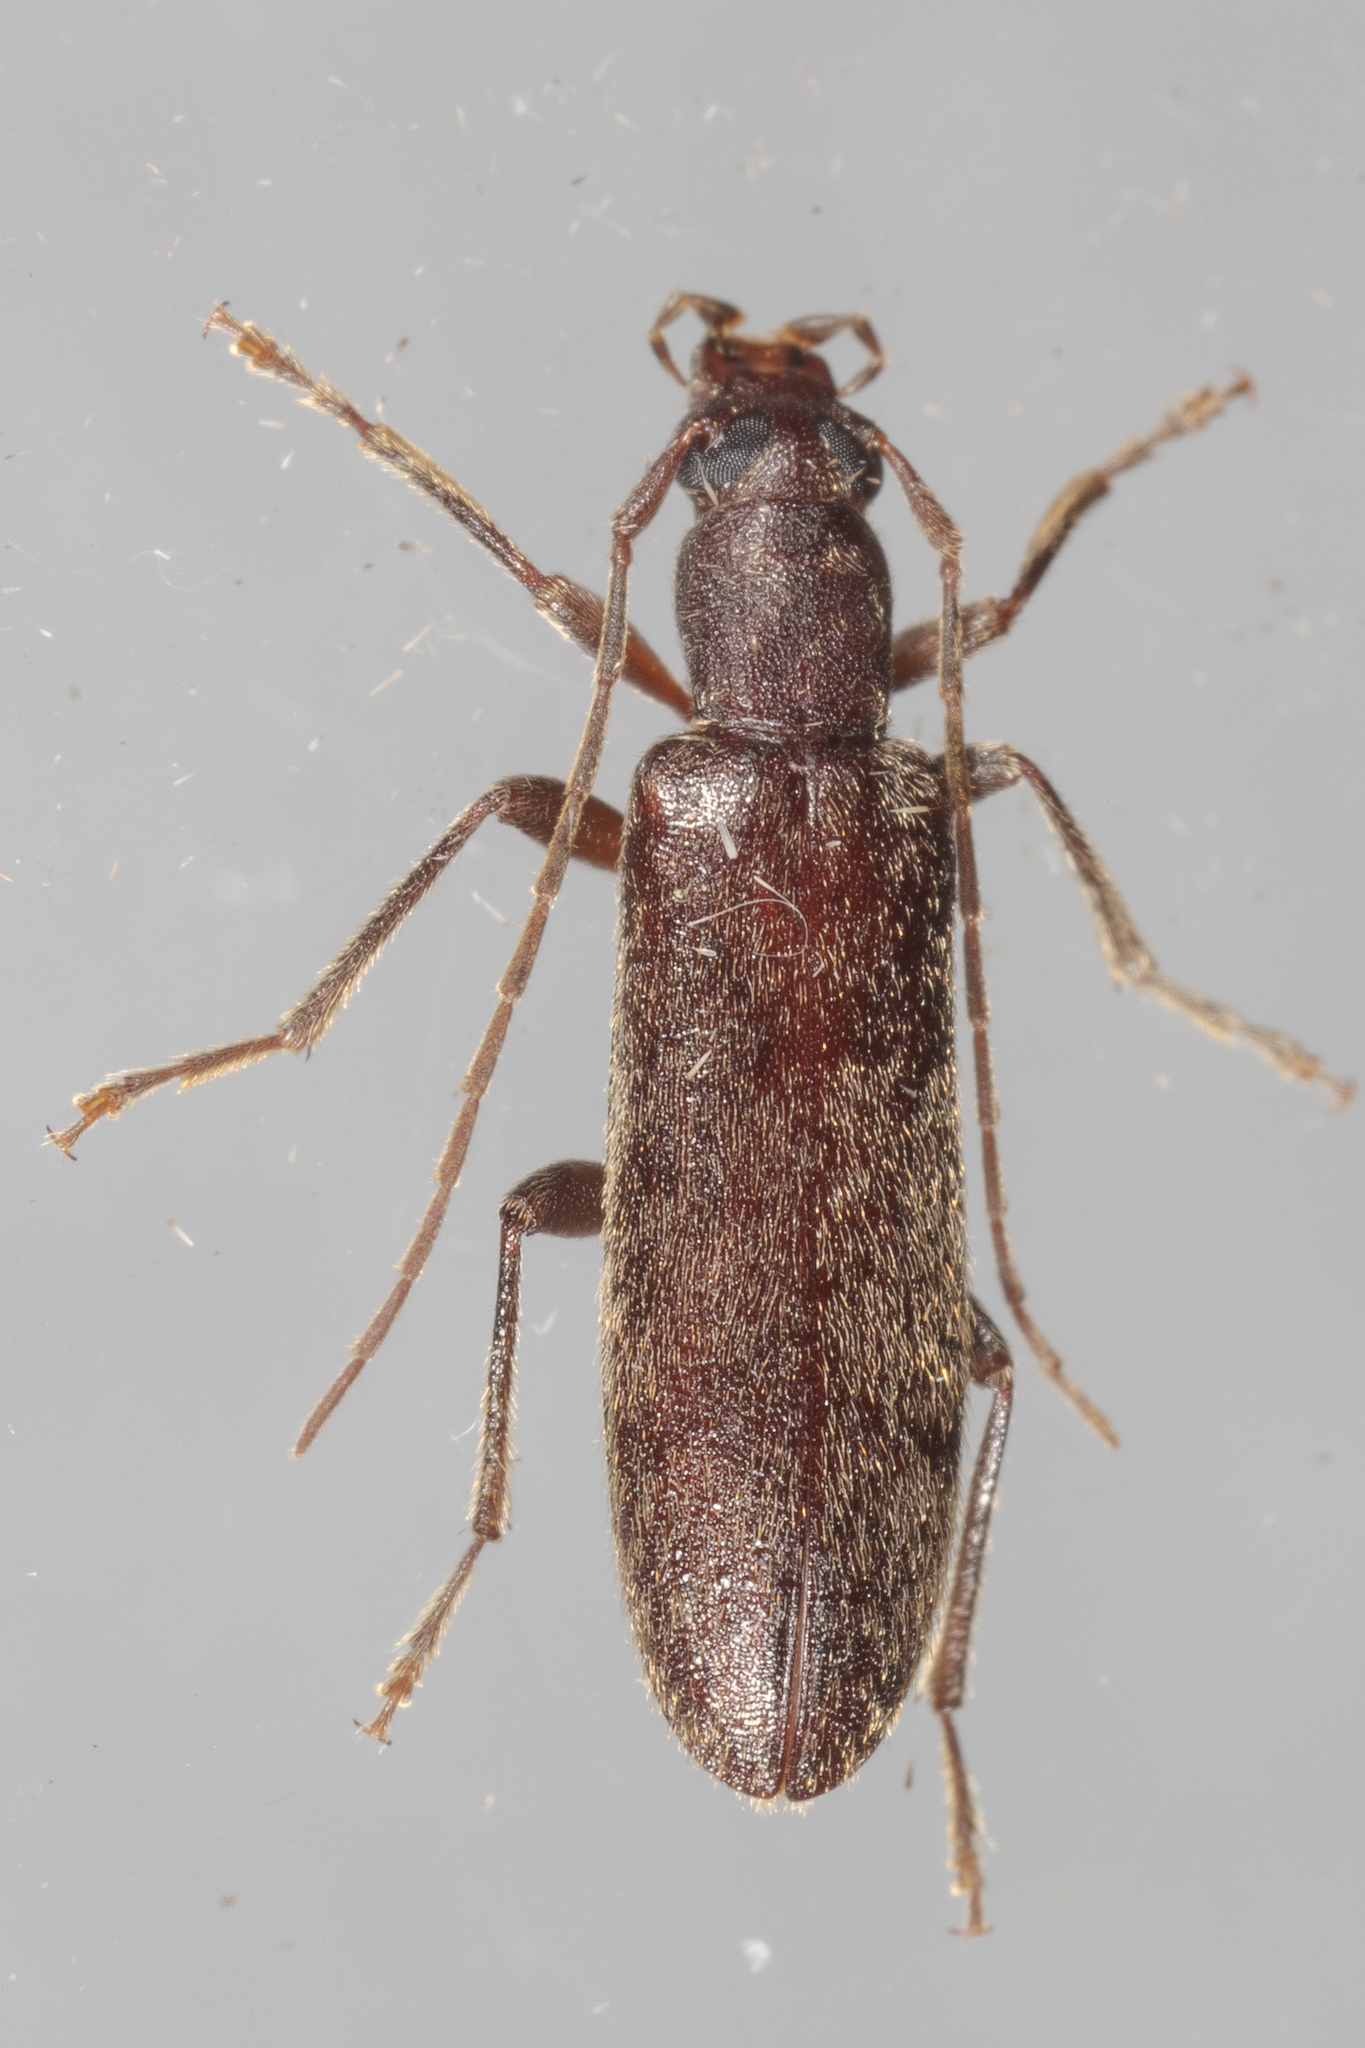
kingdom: Animalia
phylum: Arthropoda
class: Insecta
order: Coleoptera
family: Oedemeridae
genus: Sparedrus
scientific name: Sparedrus aspersus
